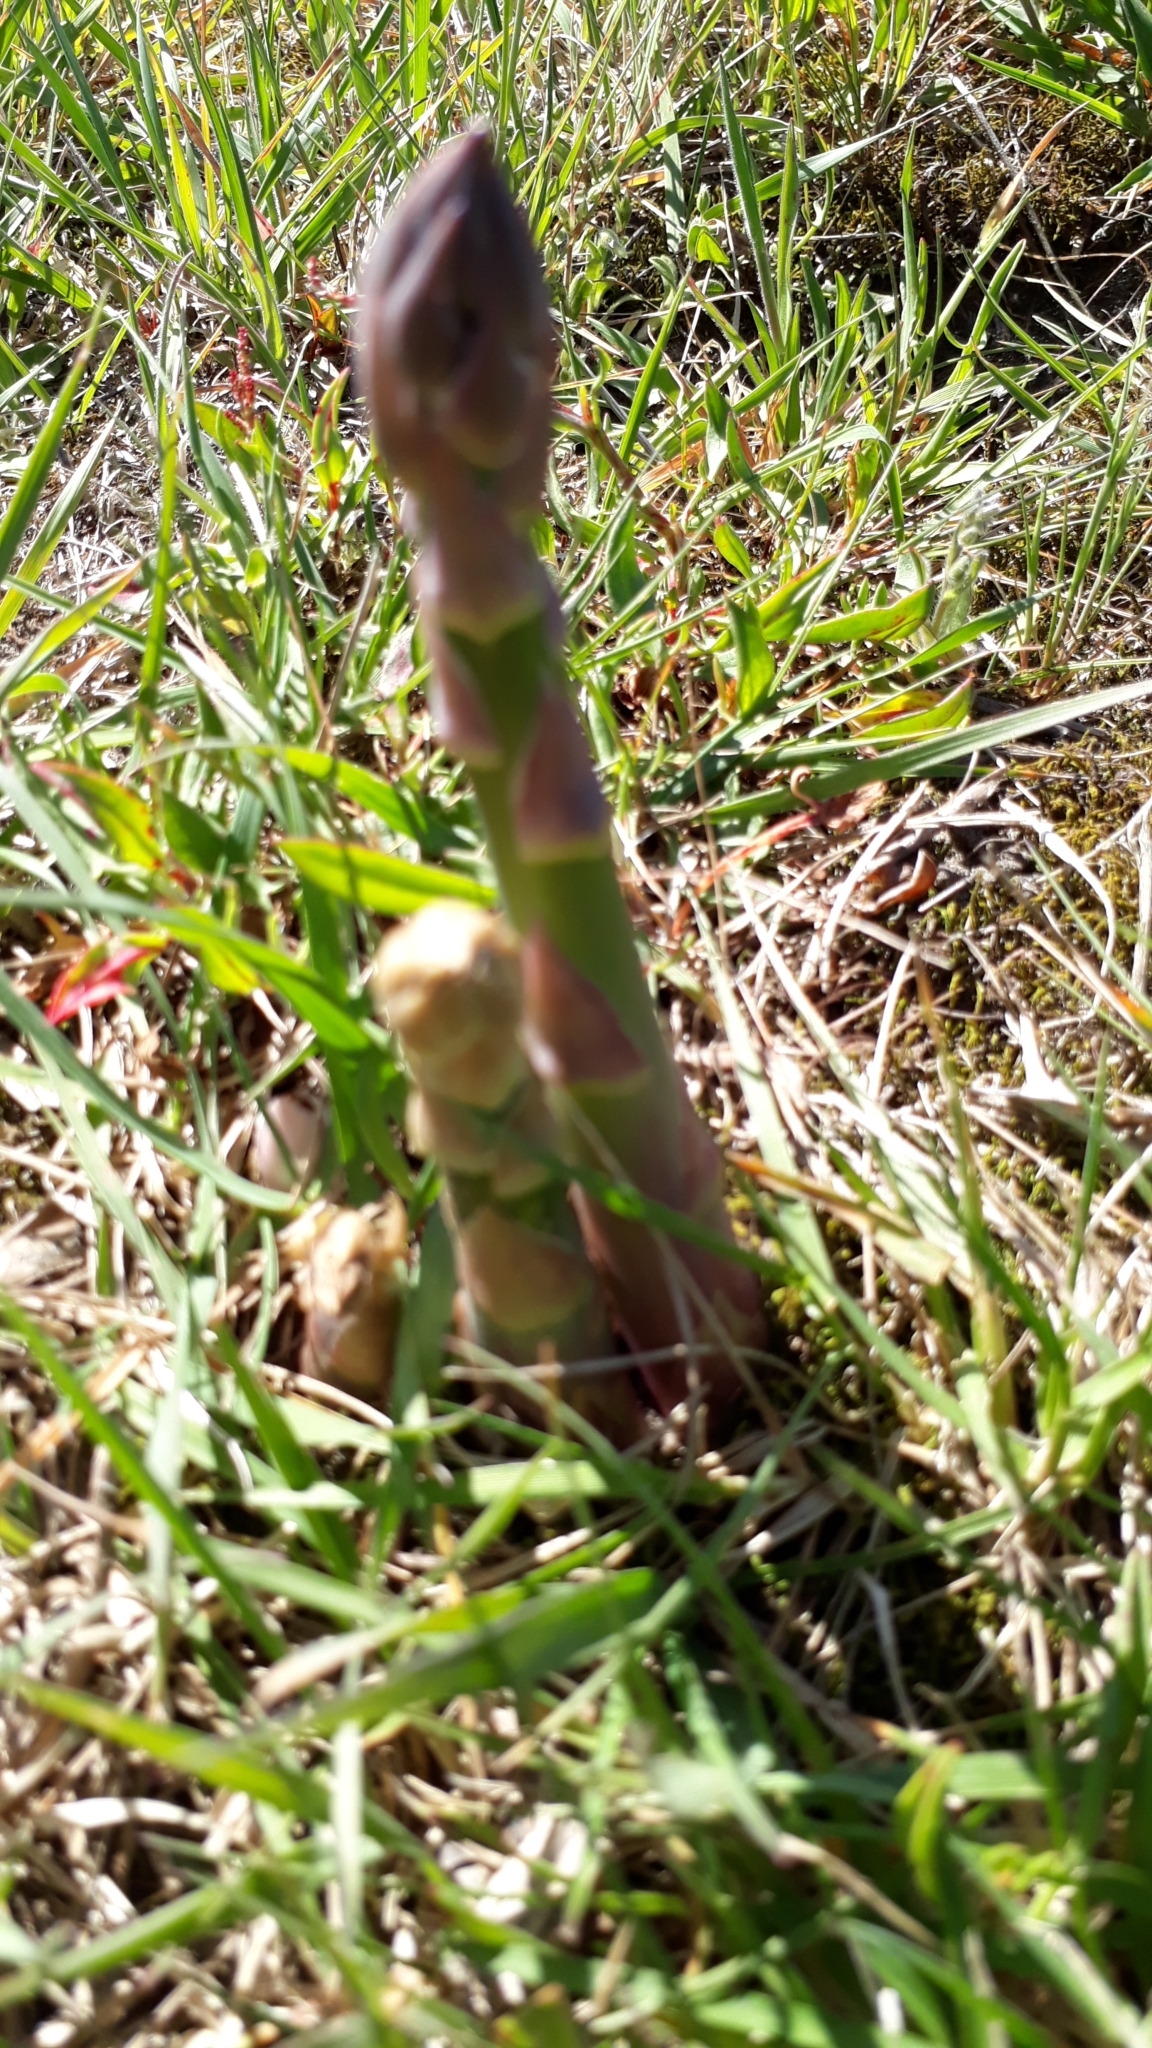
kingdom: Plantae
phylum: Tracheophyta
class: Liliopsida
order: Asparagales
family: Asparagaceae
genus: Asparagus
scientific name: Asparagus officinalis
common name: Garden asparagus
